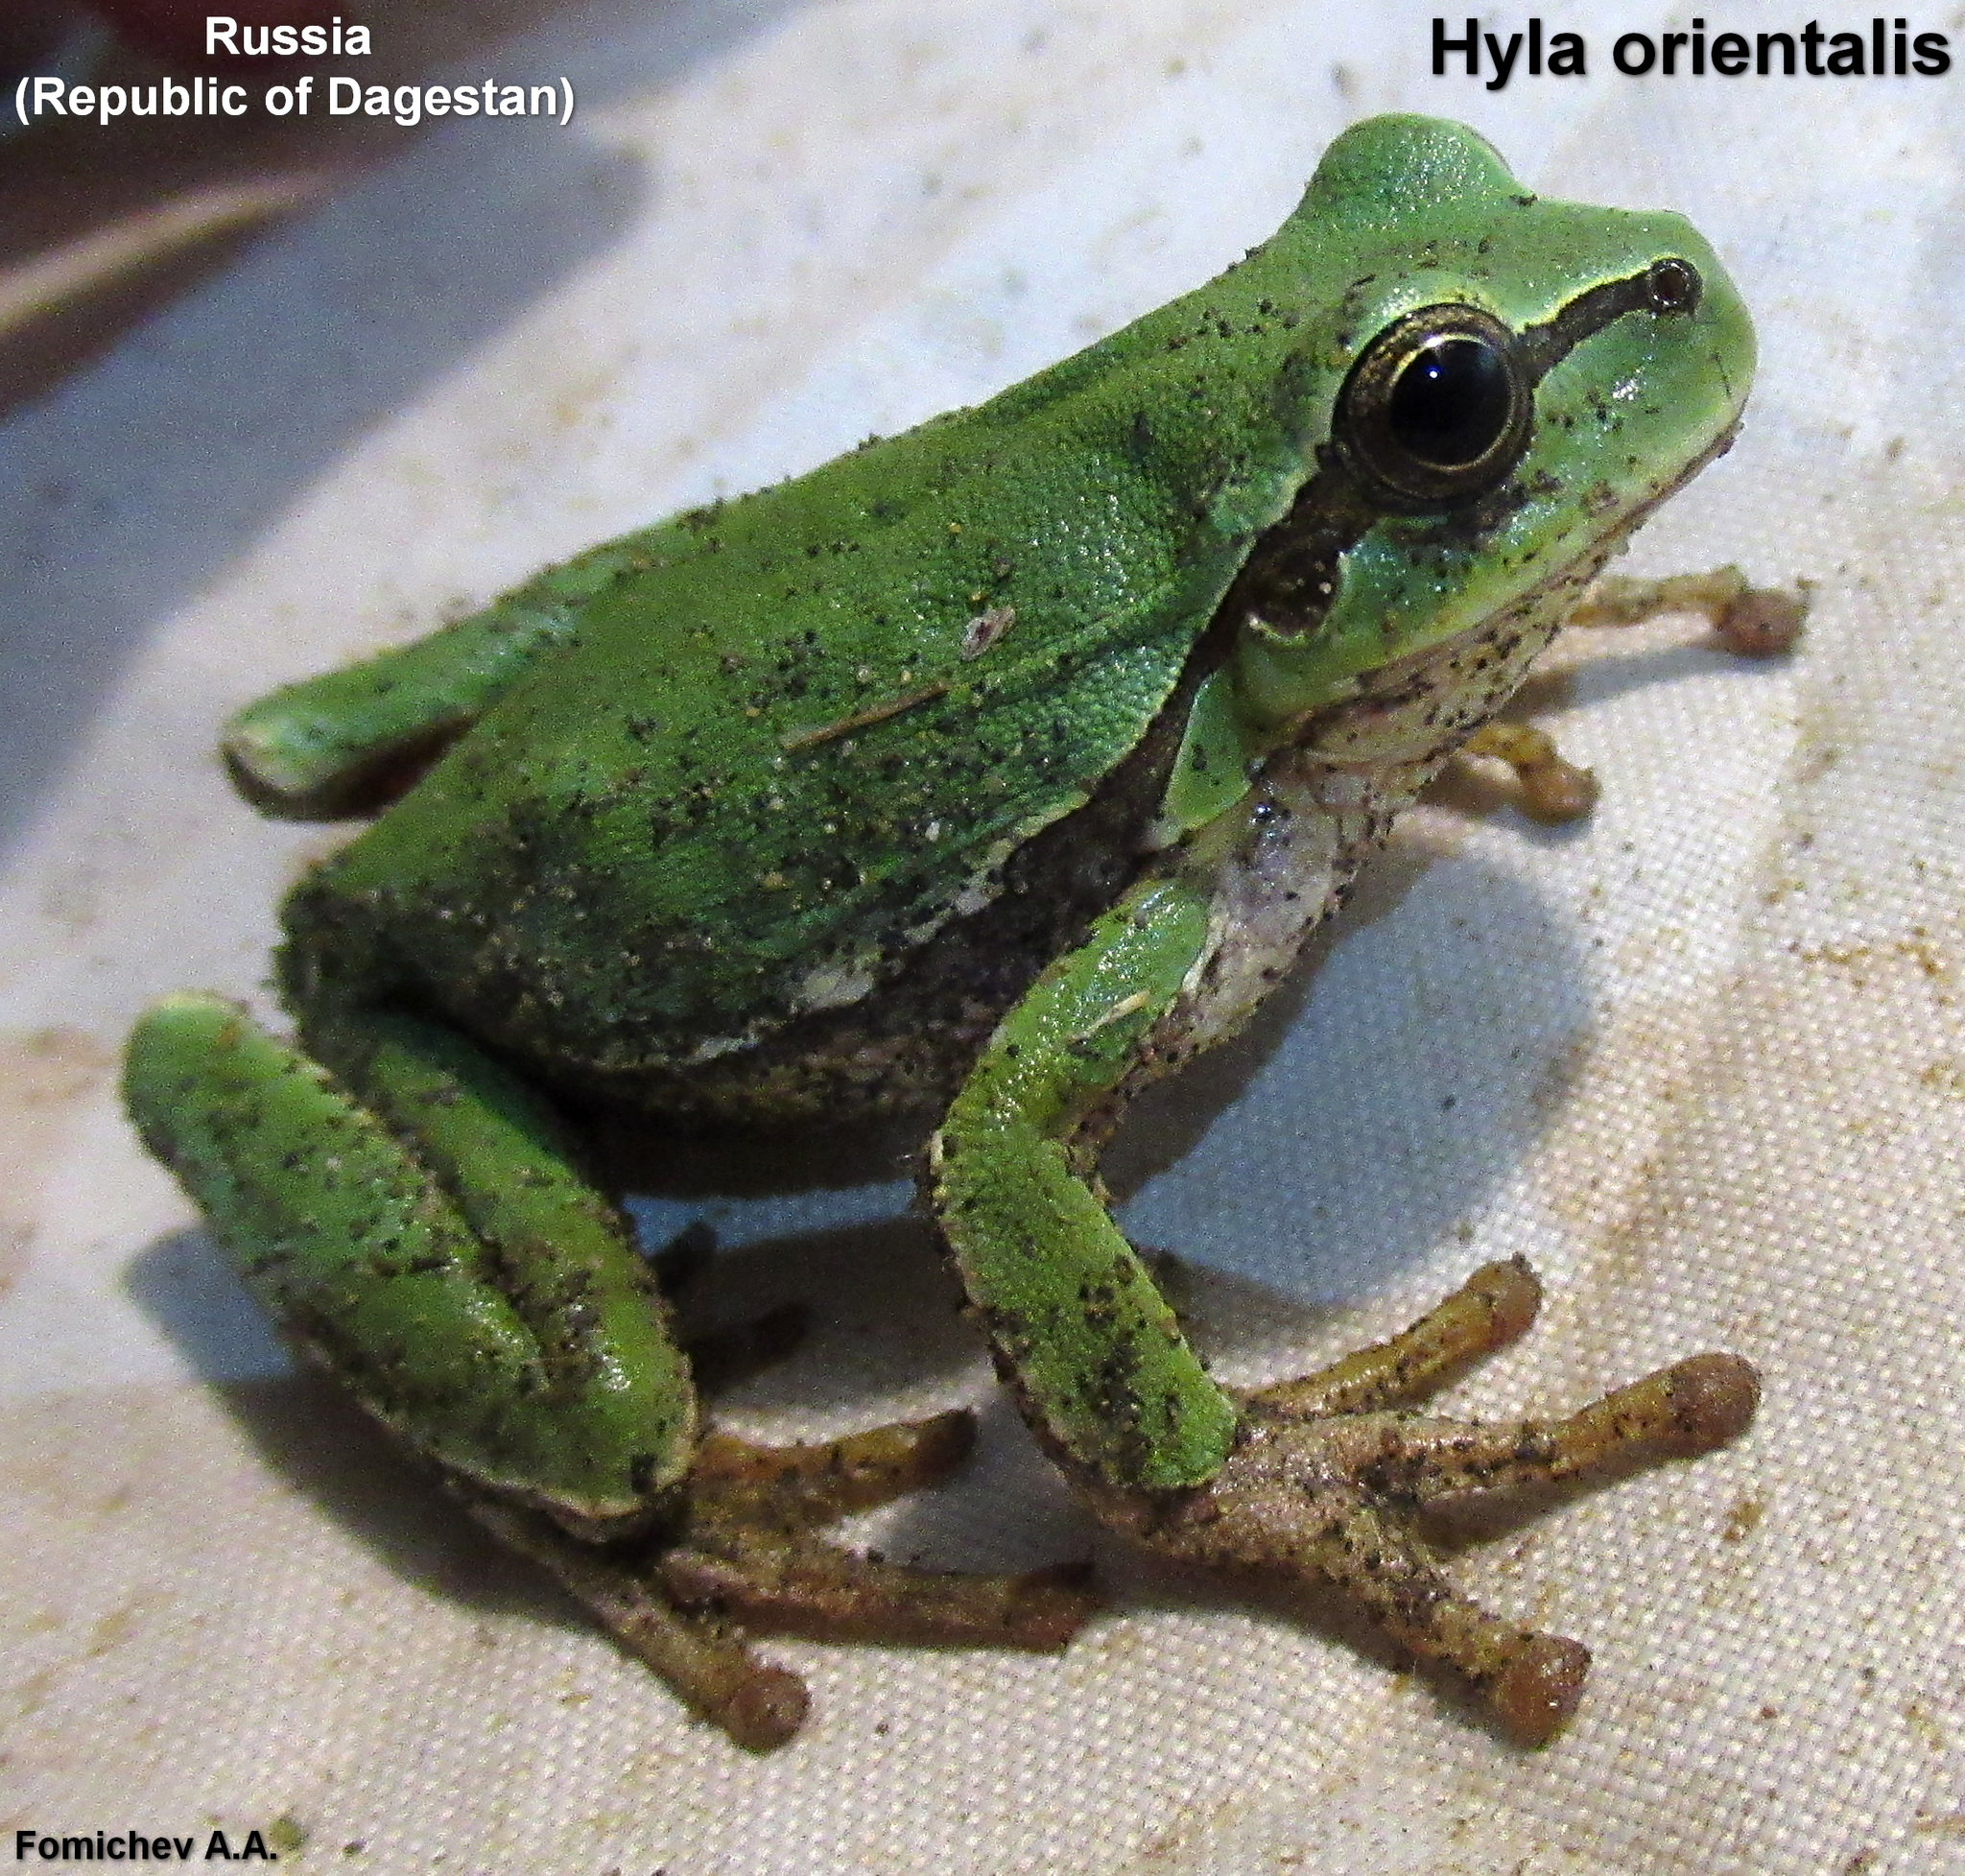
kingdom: Animalia
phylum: Chordata
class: Amphibia
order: Anura
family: Hylidae
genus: Hyla
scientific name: Hyla orientalis
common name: Caucasian treefrog
